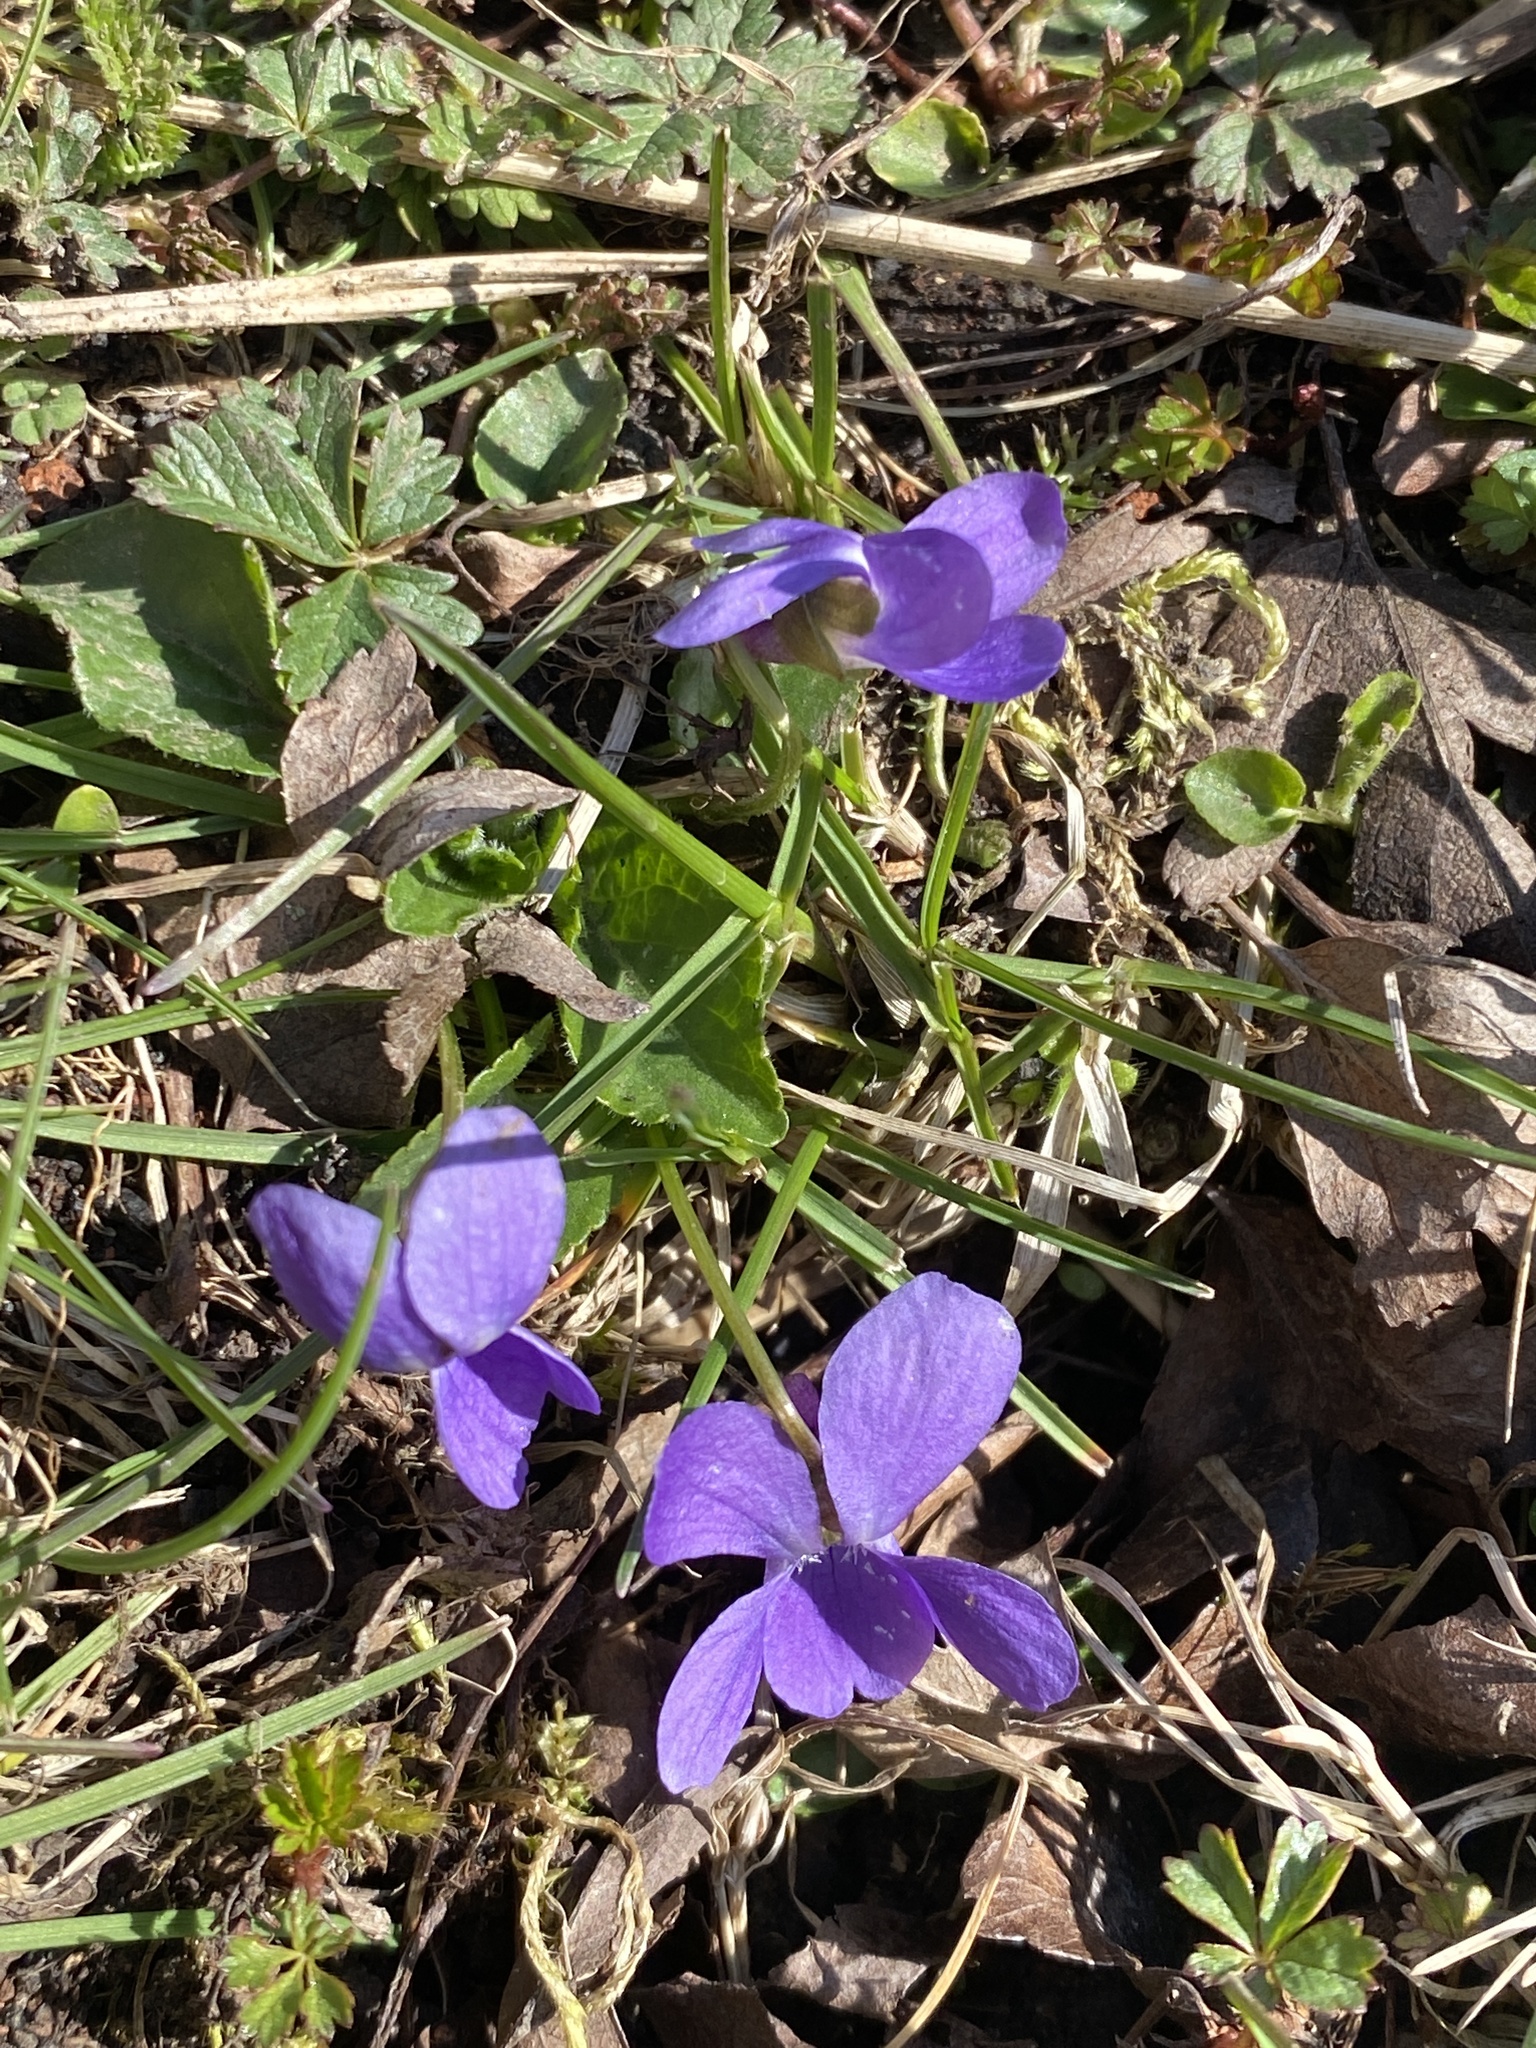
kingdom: Plantae
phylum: Tracheophyta
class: Magnoliopsida
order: Malpighiales
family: Violaceae
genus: Viola
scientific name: Viola odorata
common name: Sweet violet
